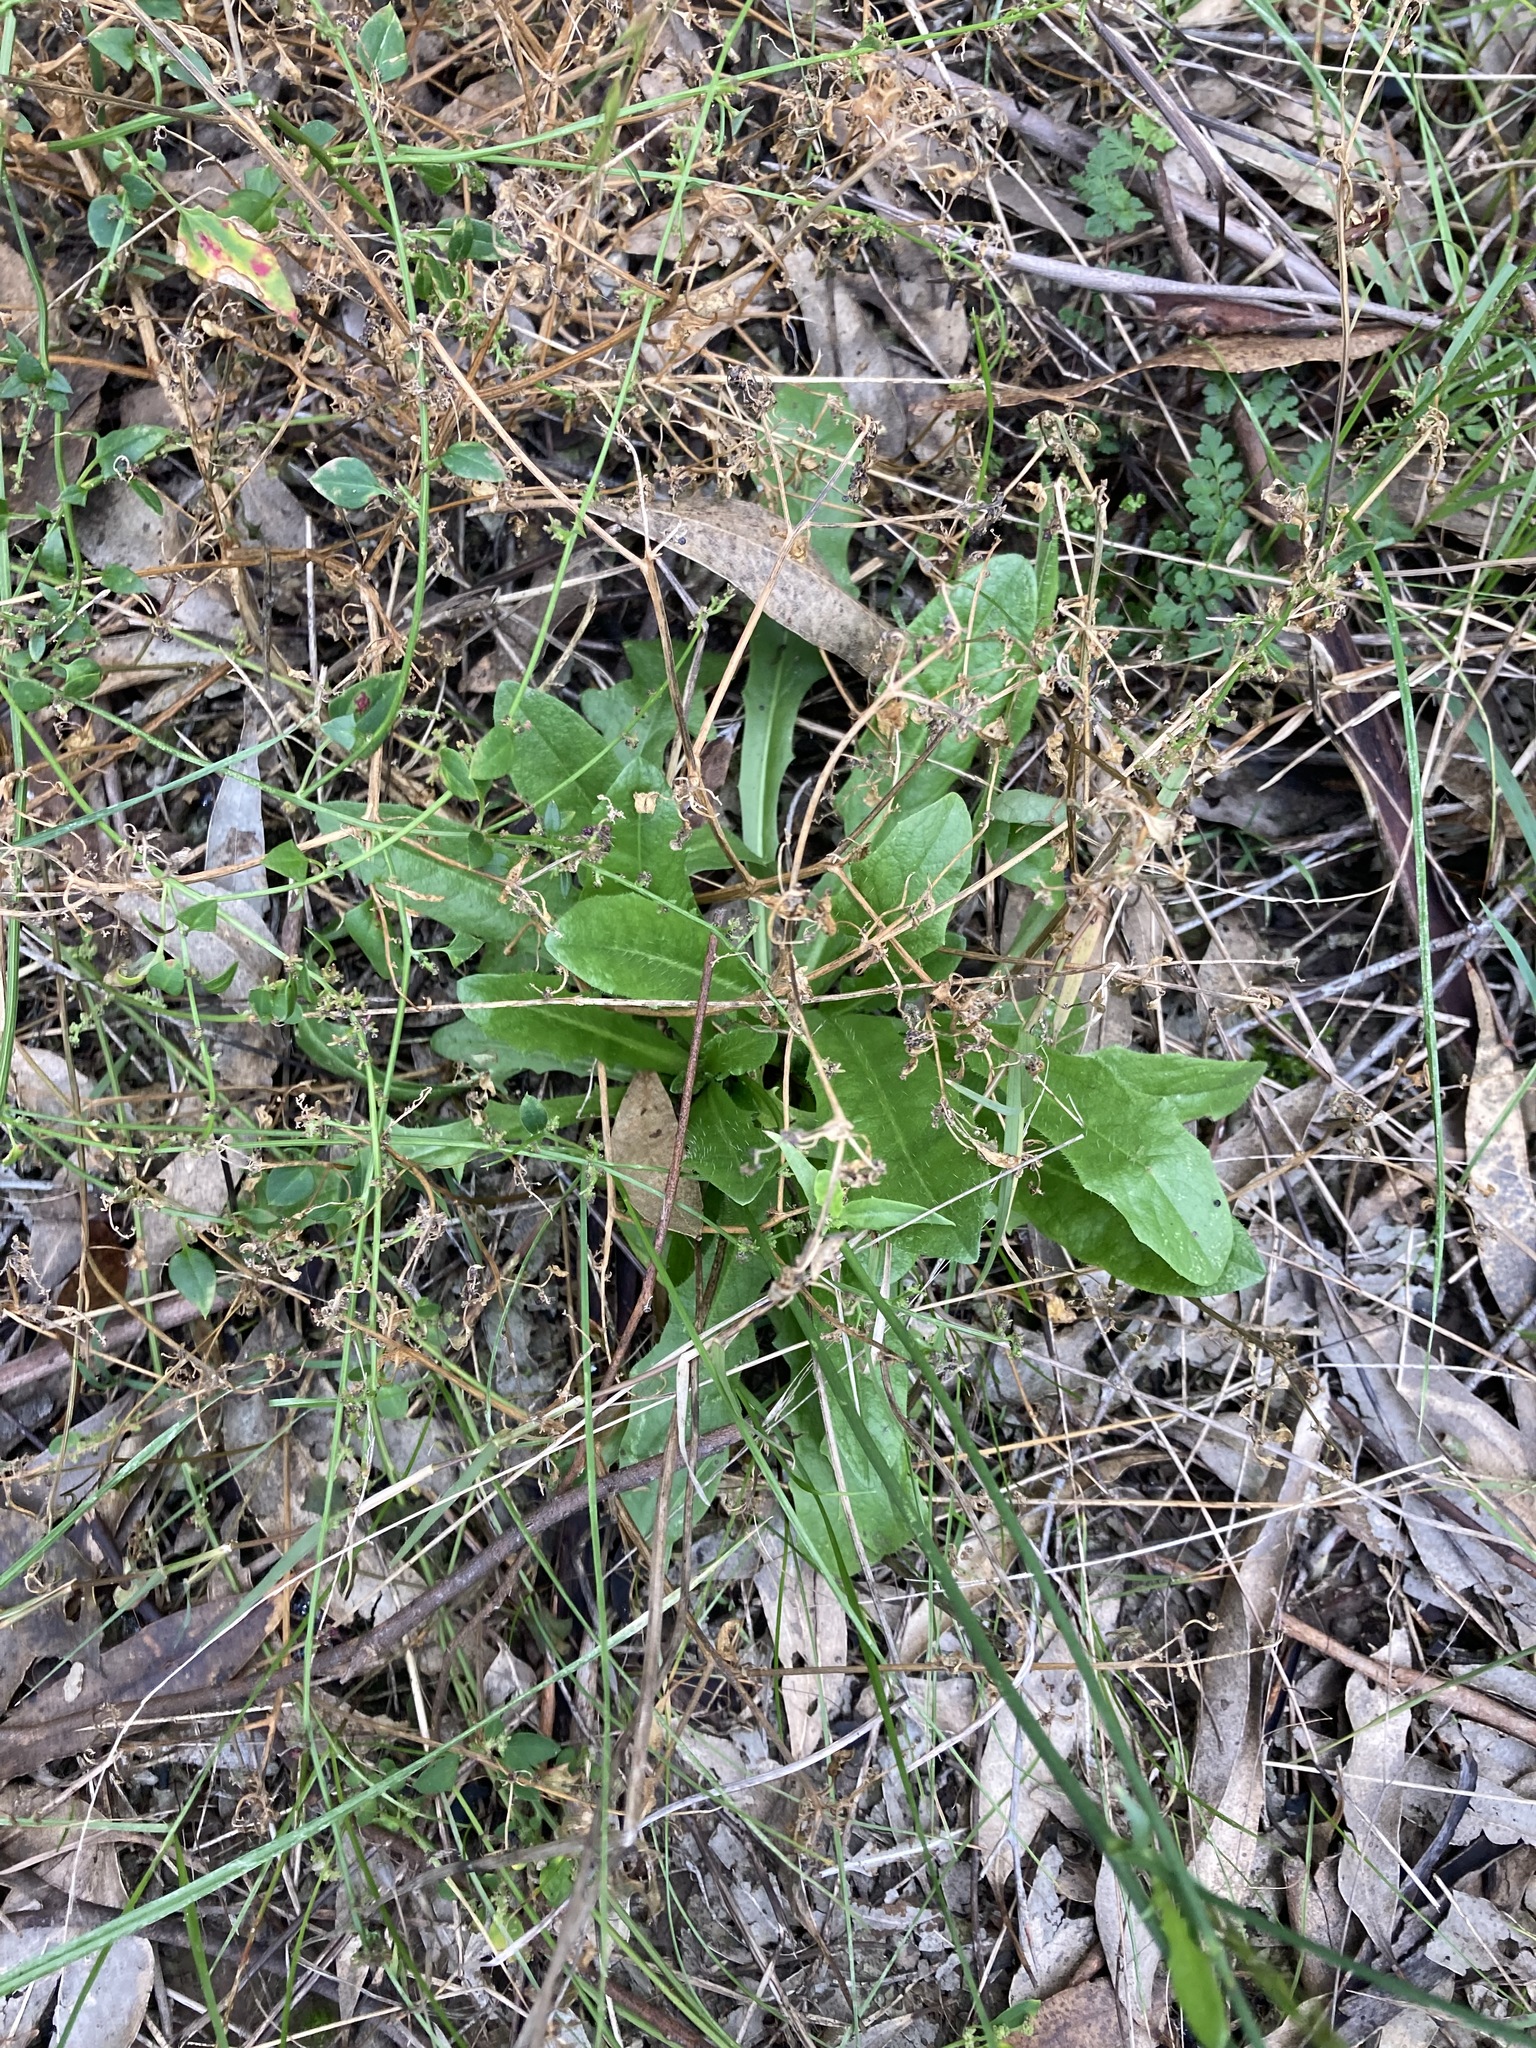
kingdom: Plantae
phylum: Tracheophyta
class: Magnoliopsida
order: Asterales
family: Asteraceae
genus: Hypochaeris
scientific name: Hypochaeris radicata
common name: Flatweed
